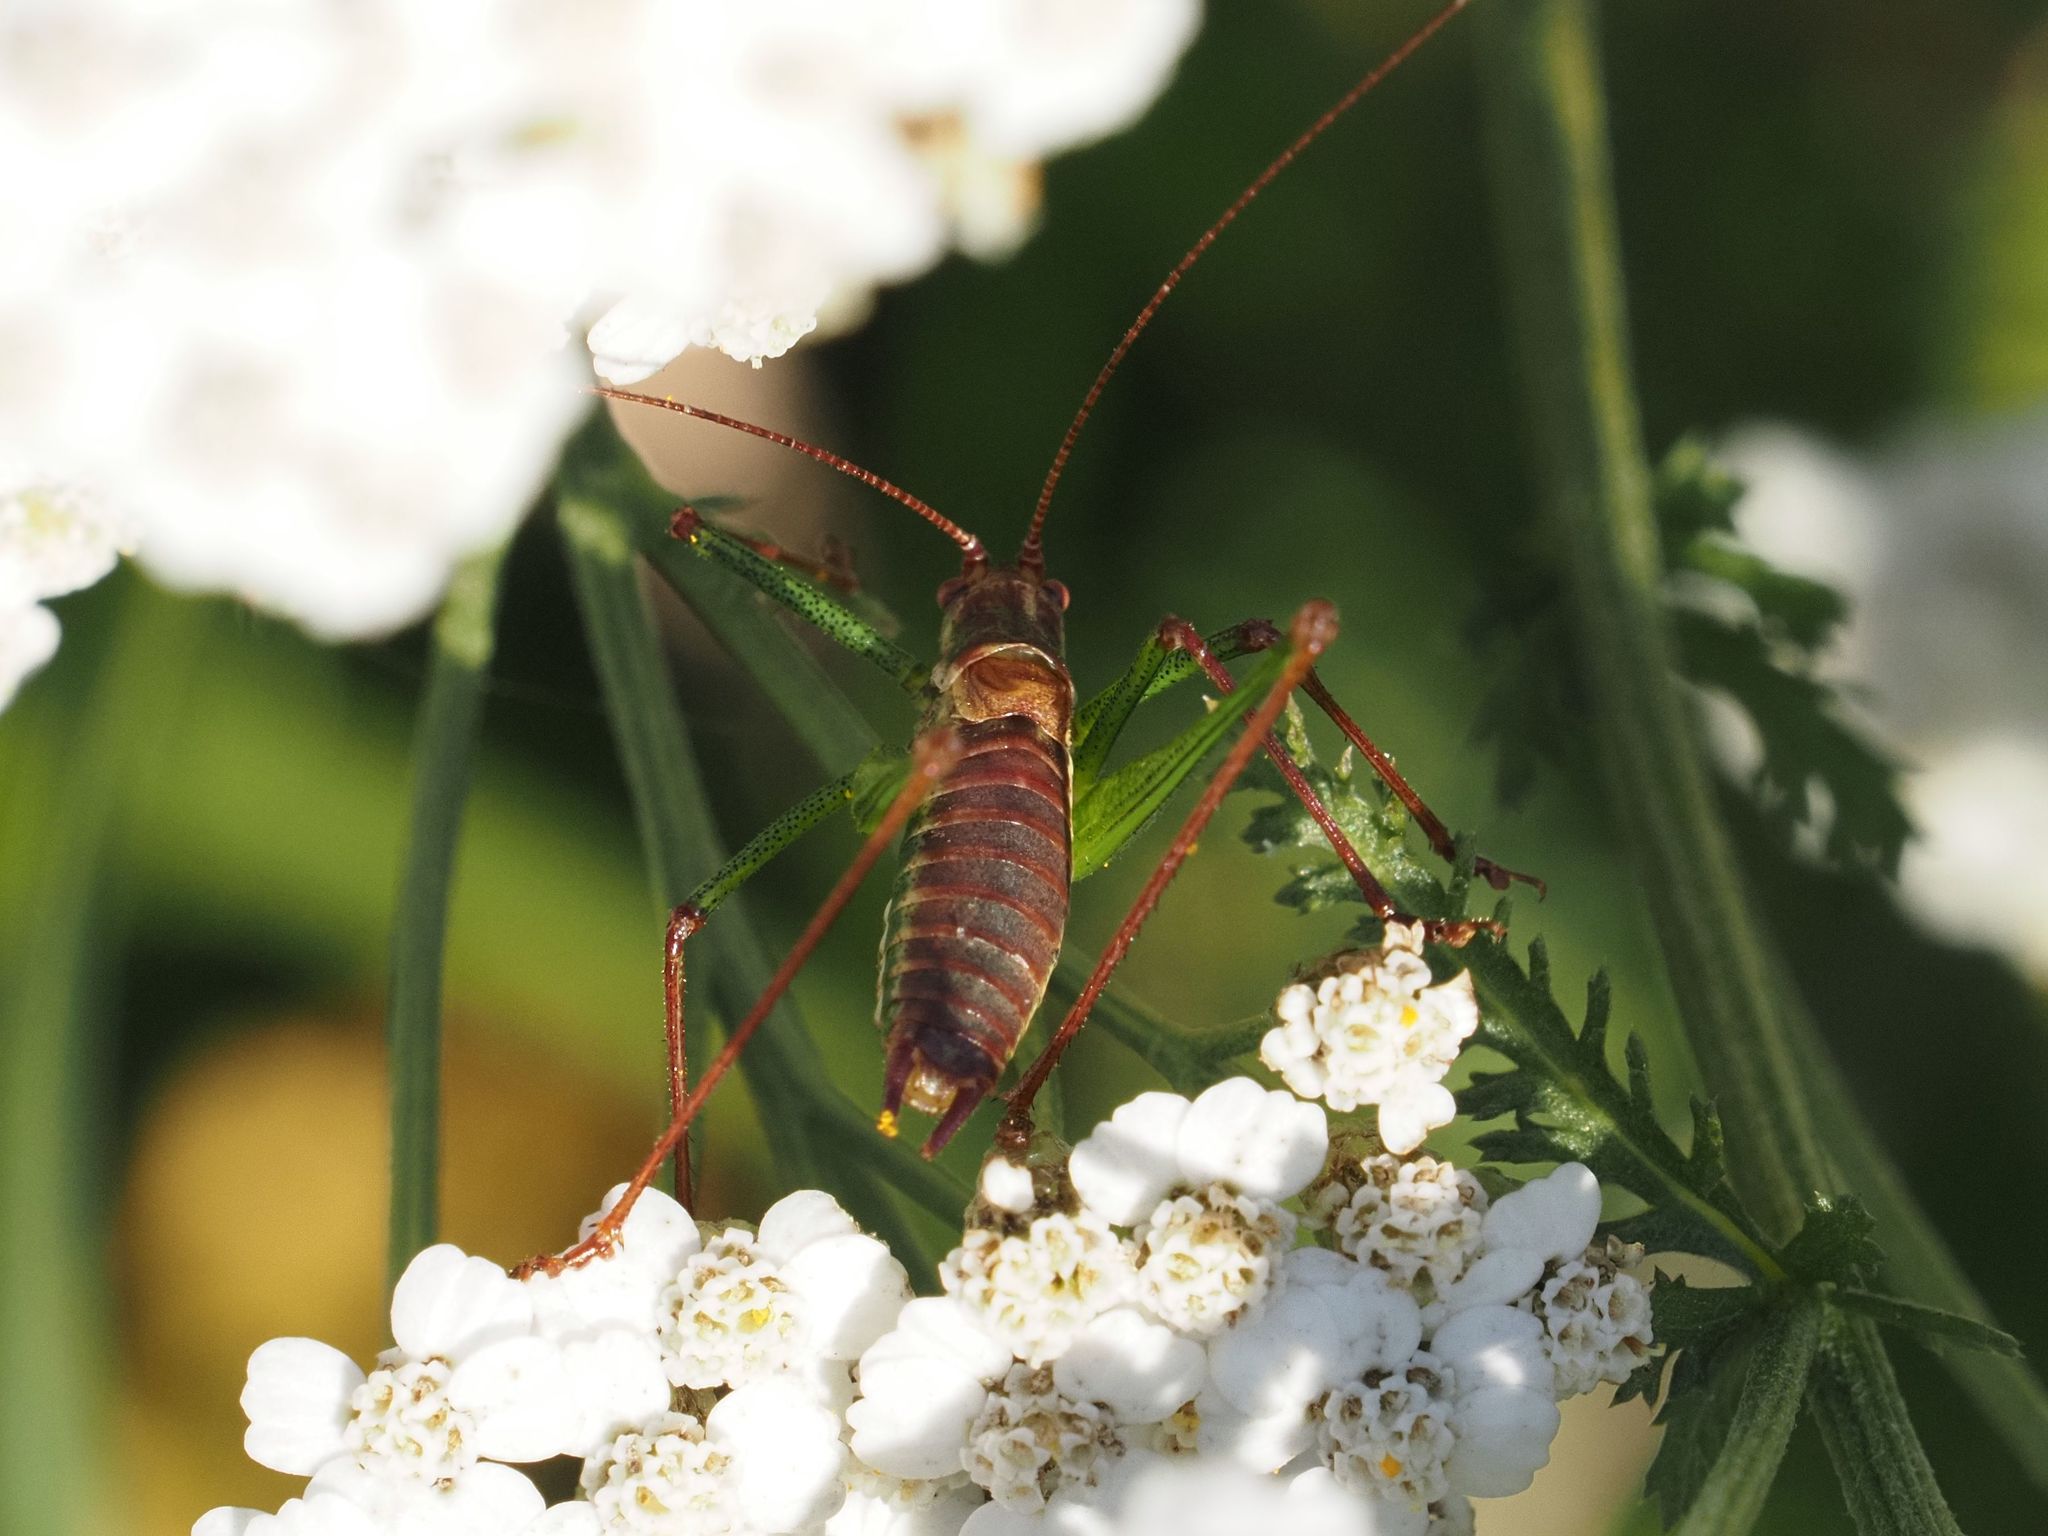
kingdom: Animalia
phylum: Arthropoda
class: Insecta
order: Orthoptera
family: Tettigoniidae
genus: Leptophyes
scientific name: Leptophyes albovittata
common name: Striped bush-cricket
